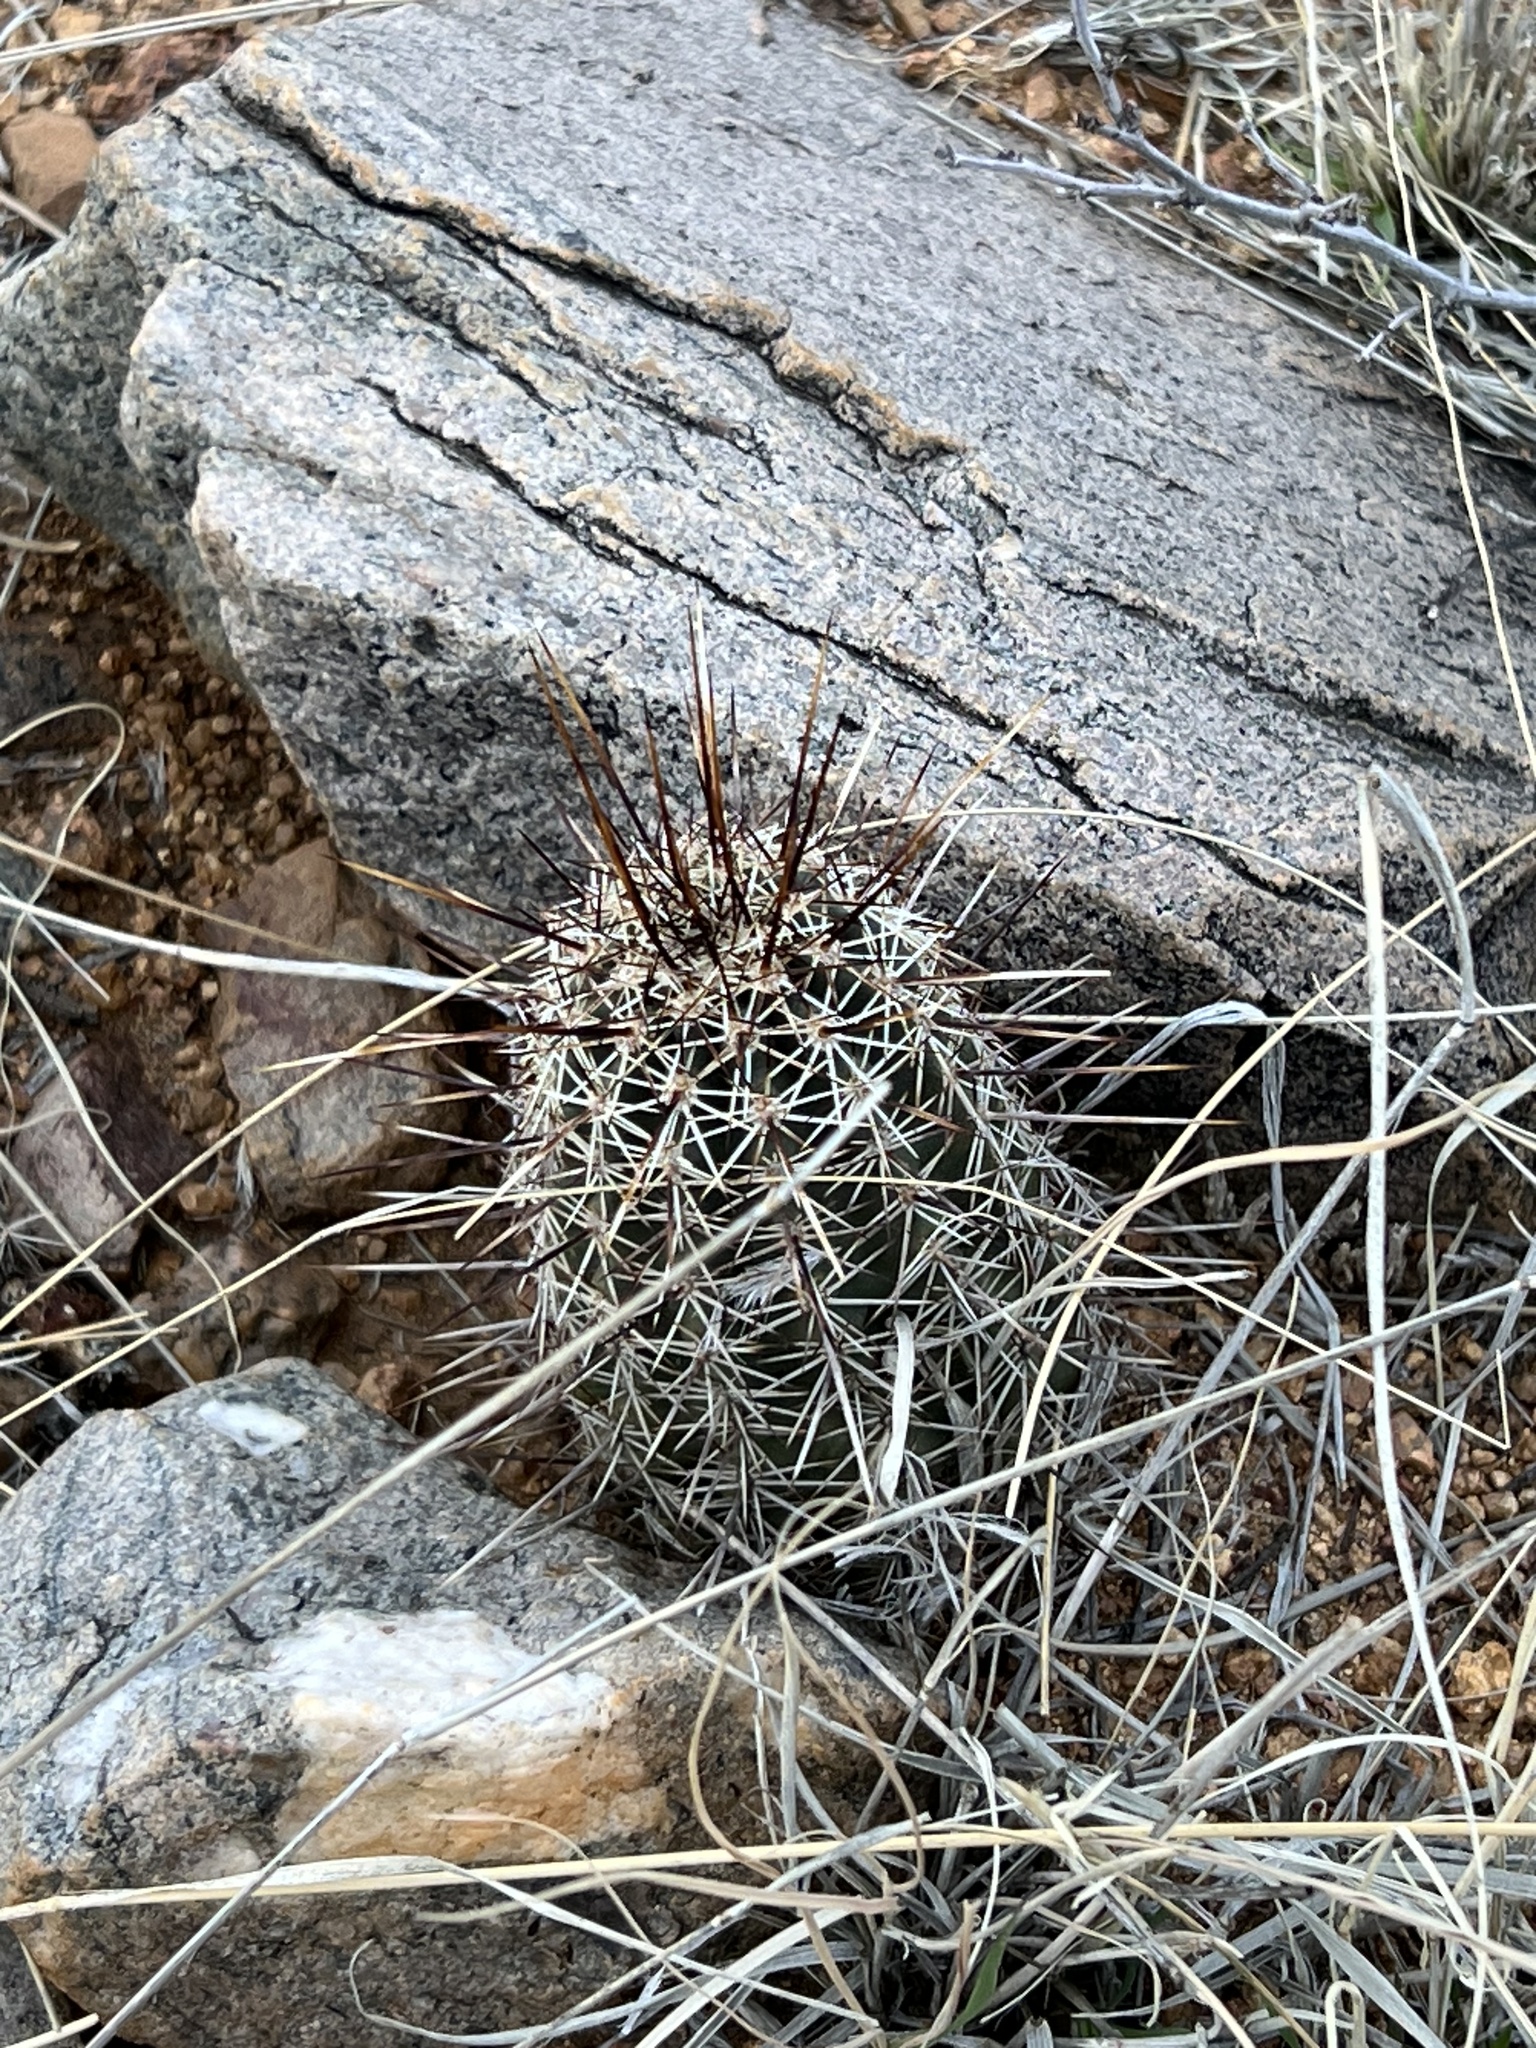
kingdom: Plantae
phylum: Tracheophyta
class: Magnoliopsida
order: Caryophyllales
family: Cactaceae
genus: Echinocereus
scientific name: Echinocereus fasciculatus
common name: Bundle hedgehog
